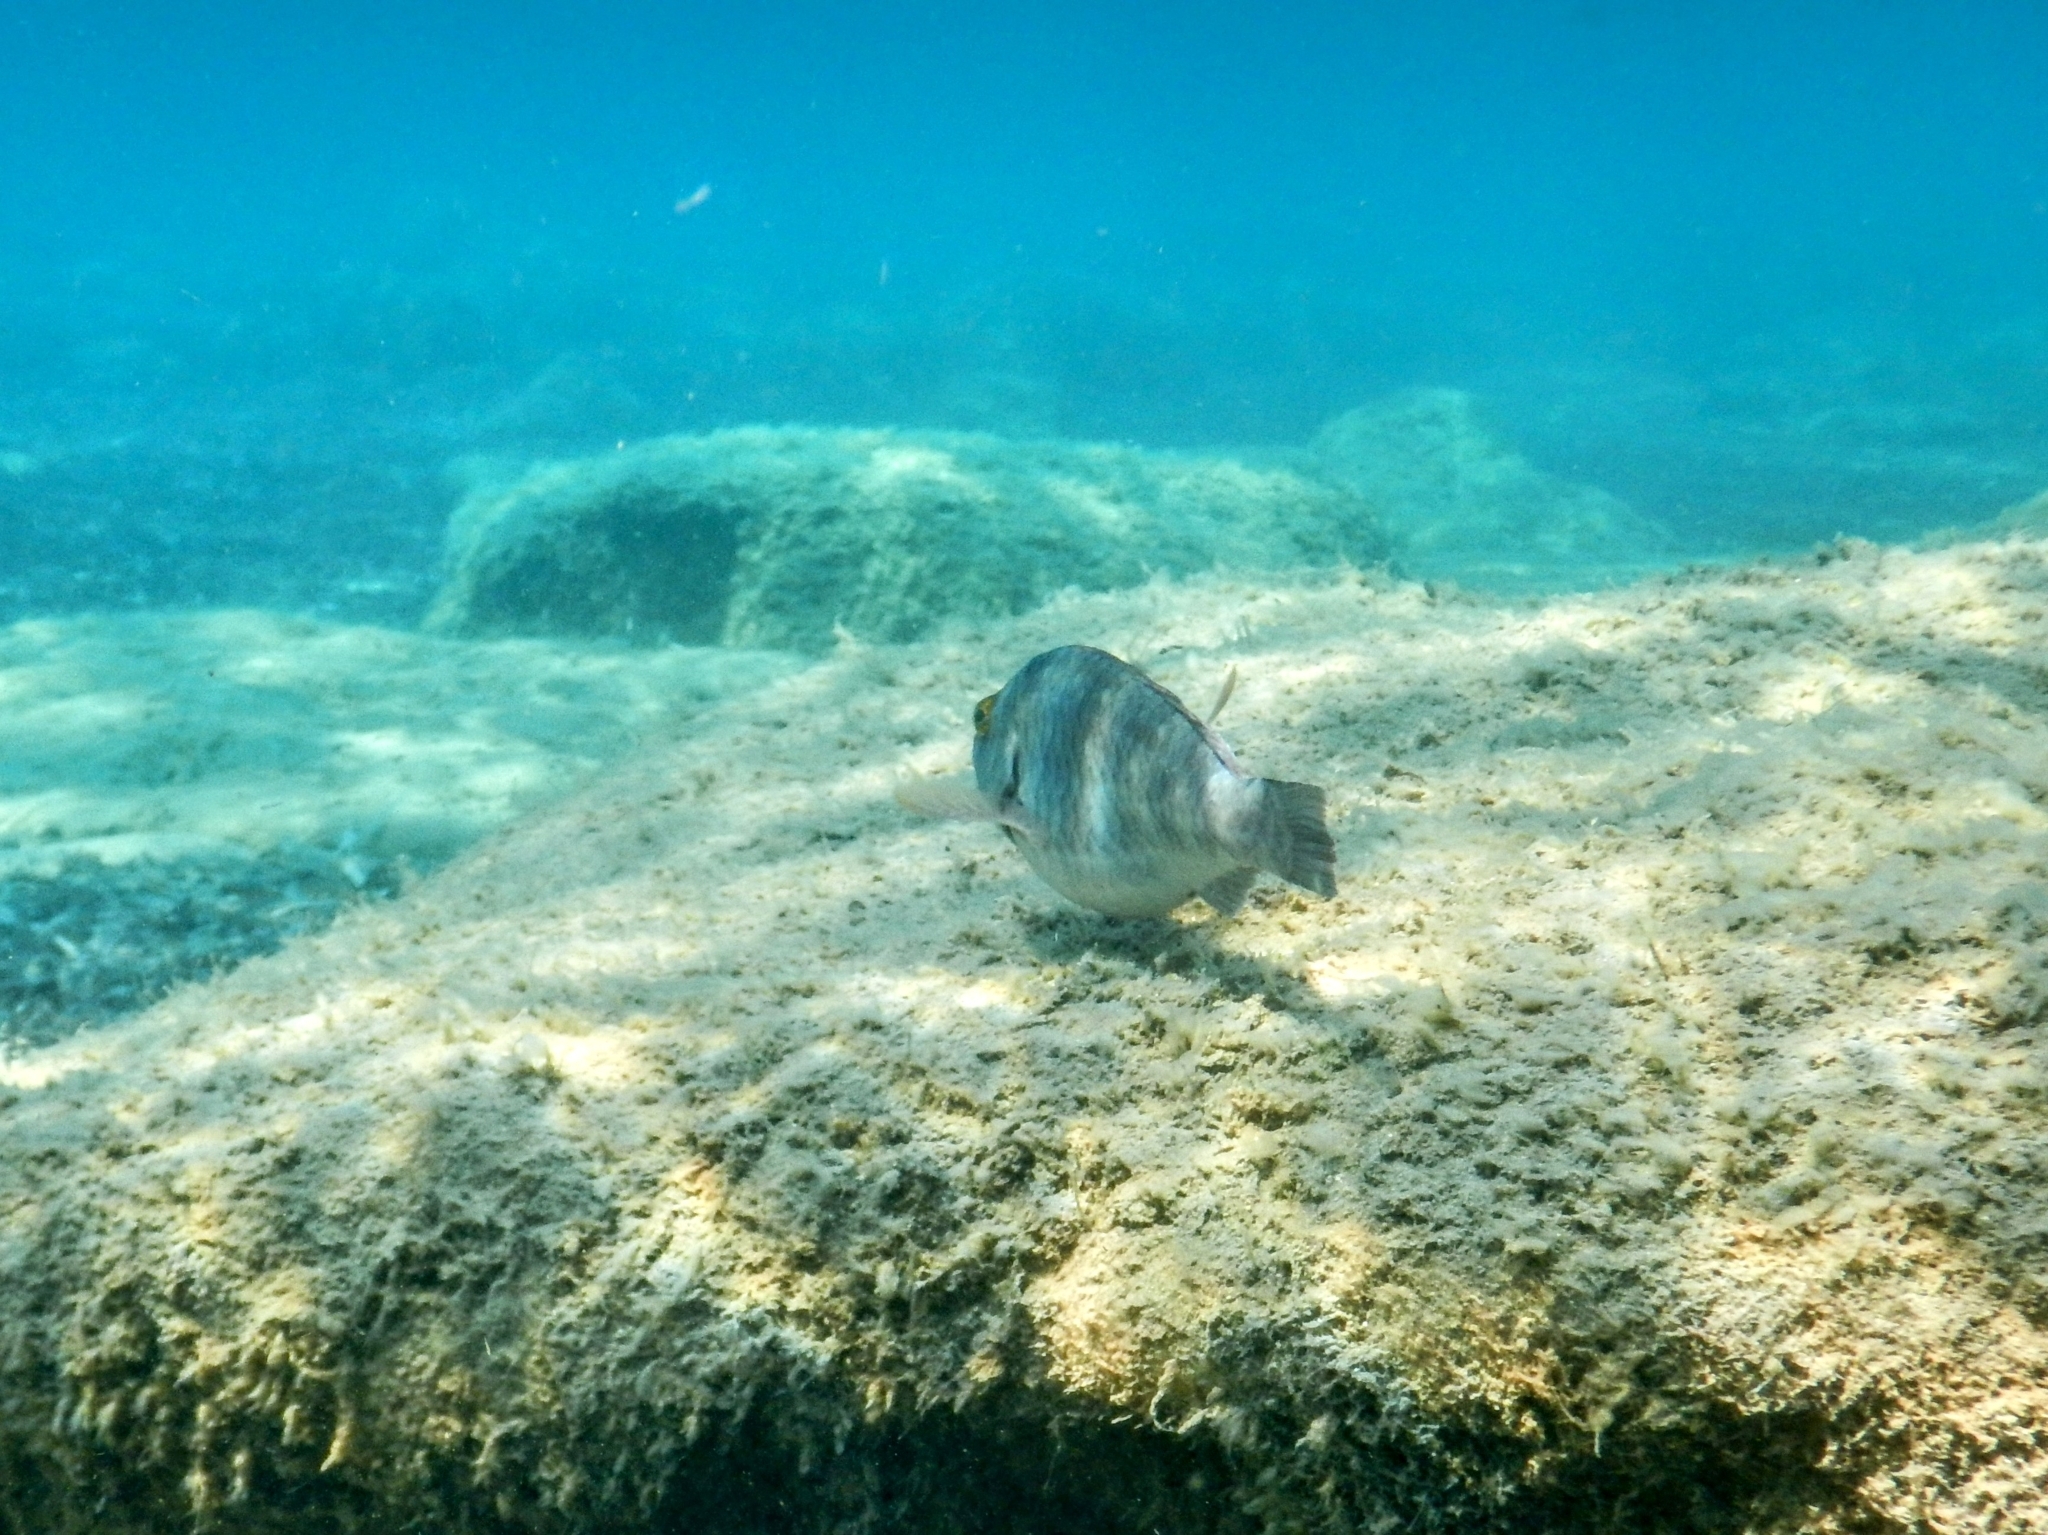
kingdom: Animalia
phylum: Chordata
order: Perciformes
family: Scaridae
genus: Sparisoma
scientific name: Sparisoma cretense
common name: Parrotfish
